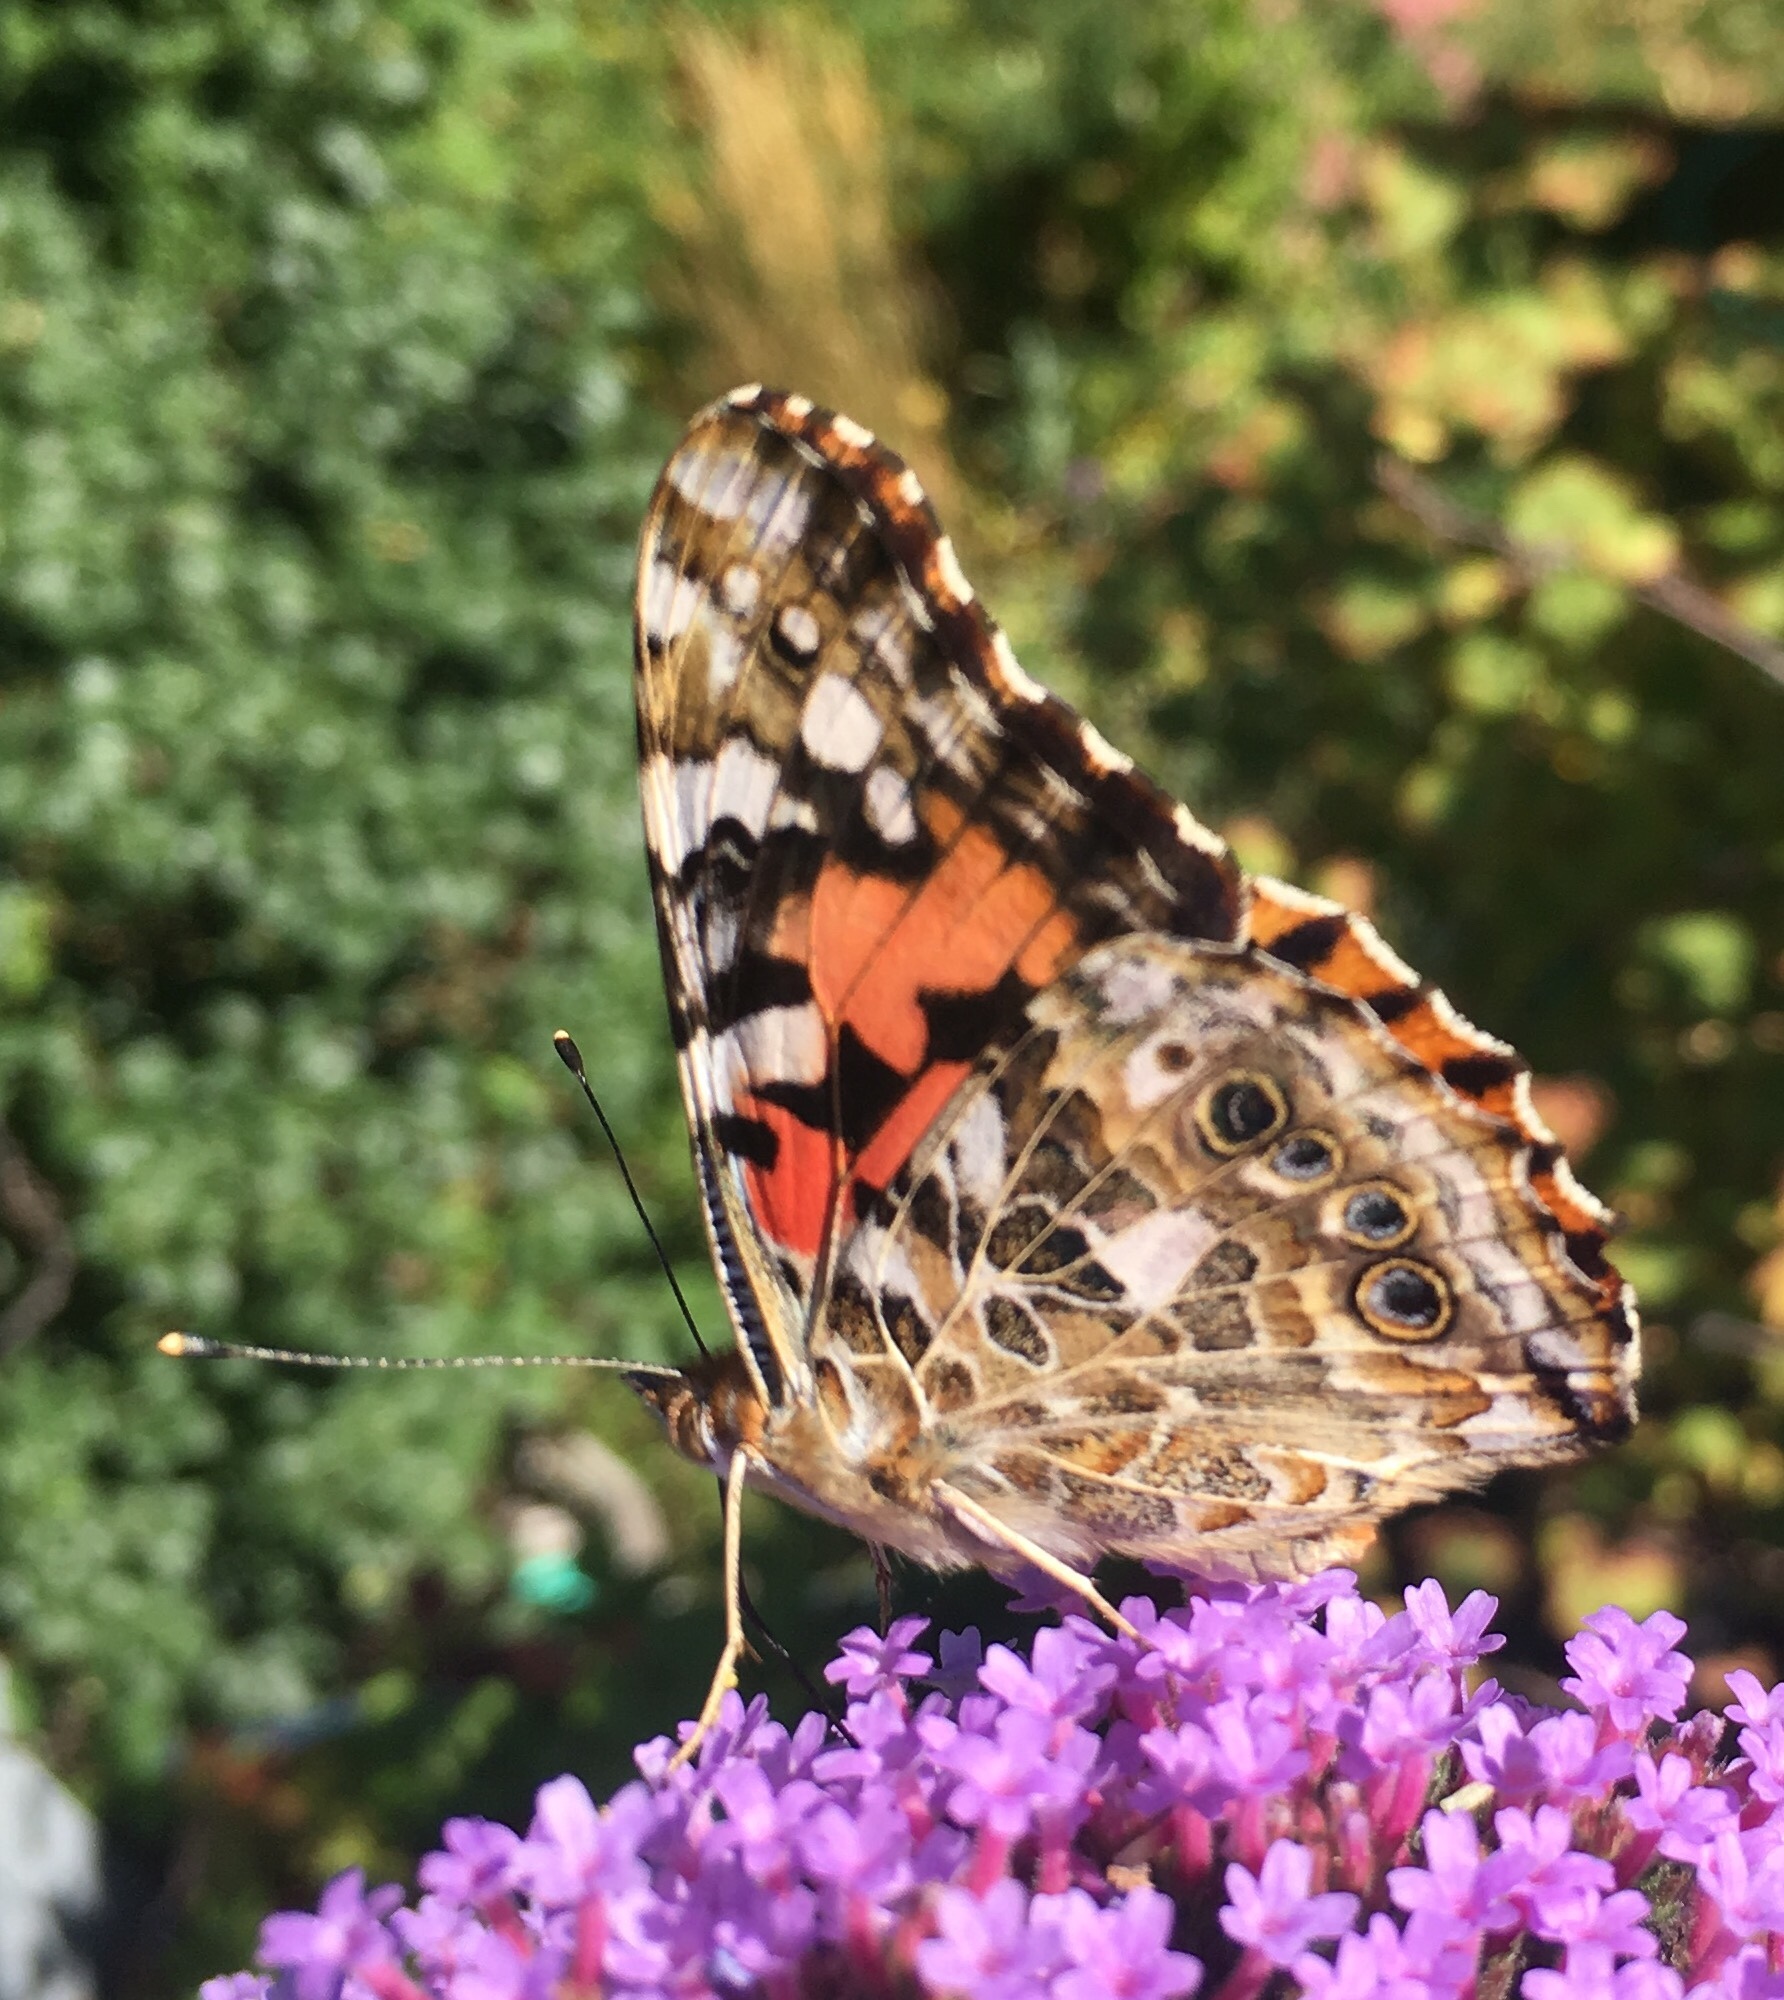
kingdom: Animalia
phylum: Arthropoda
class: Insecta
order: Lepidoptera
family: Nymphalidae
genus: Vanessa
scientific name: Vanessa cardui
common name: Painted lady
